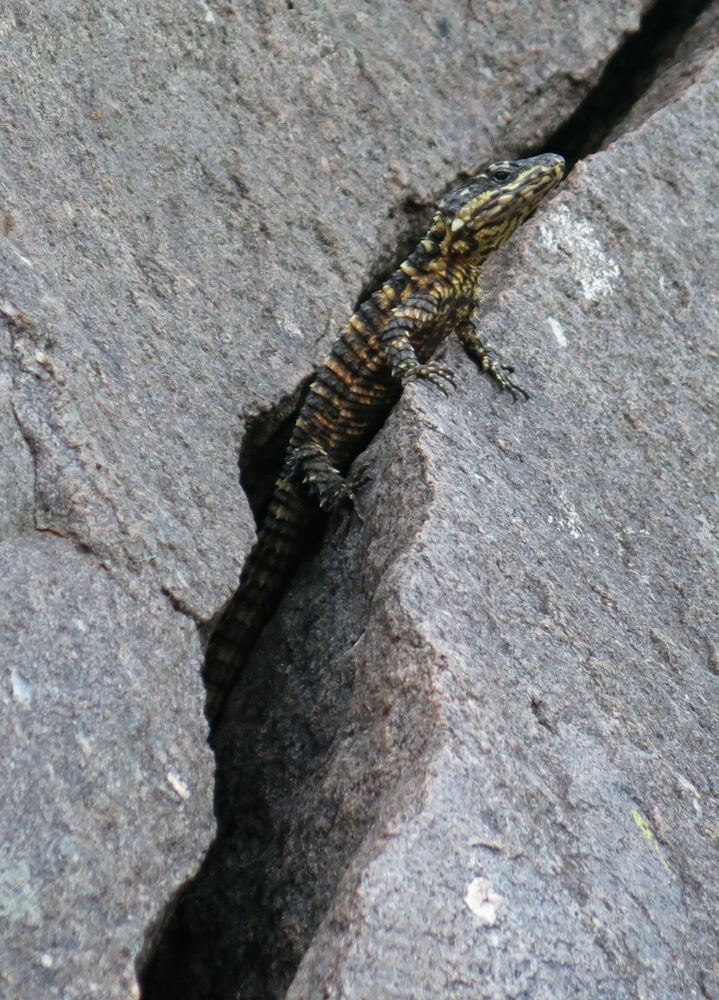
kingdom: Animalia
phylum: Chordata
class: Squamata
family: Cordylidae
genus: Smaug
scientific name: Smaug depressus
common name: Flat dragon lizard
